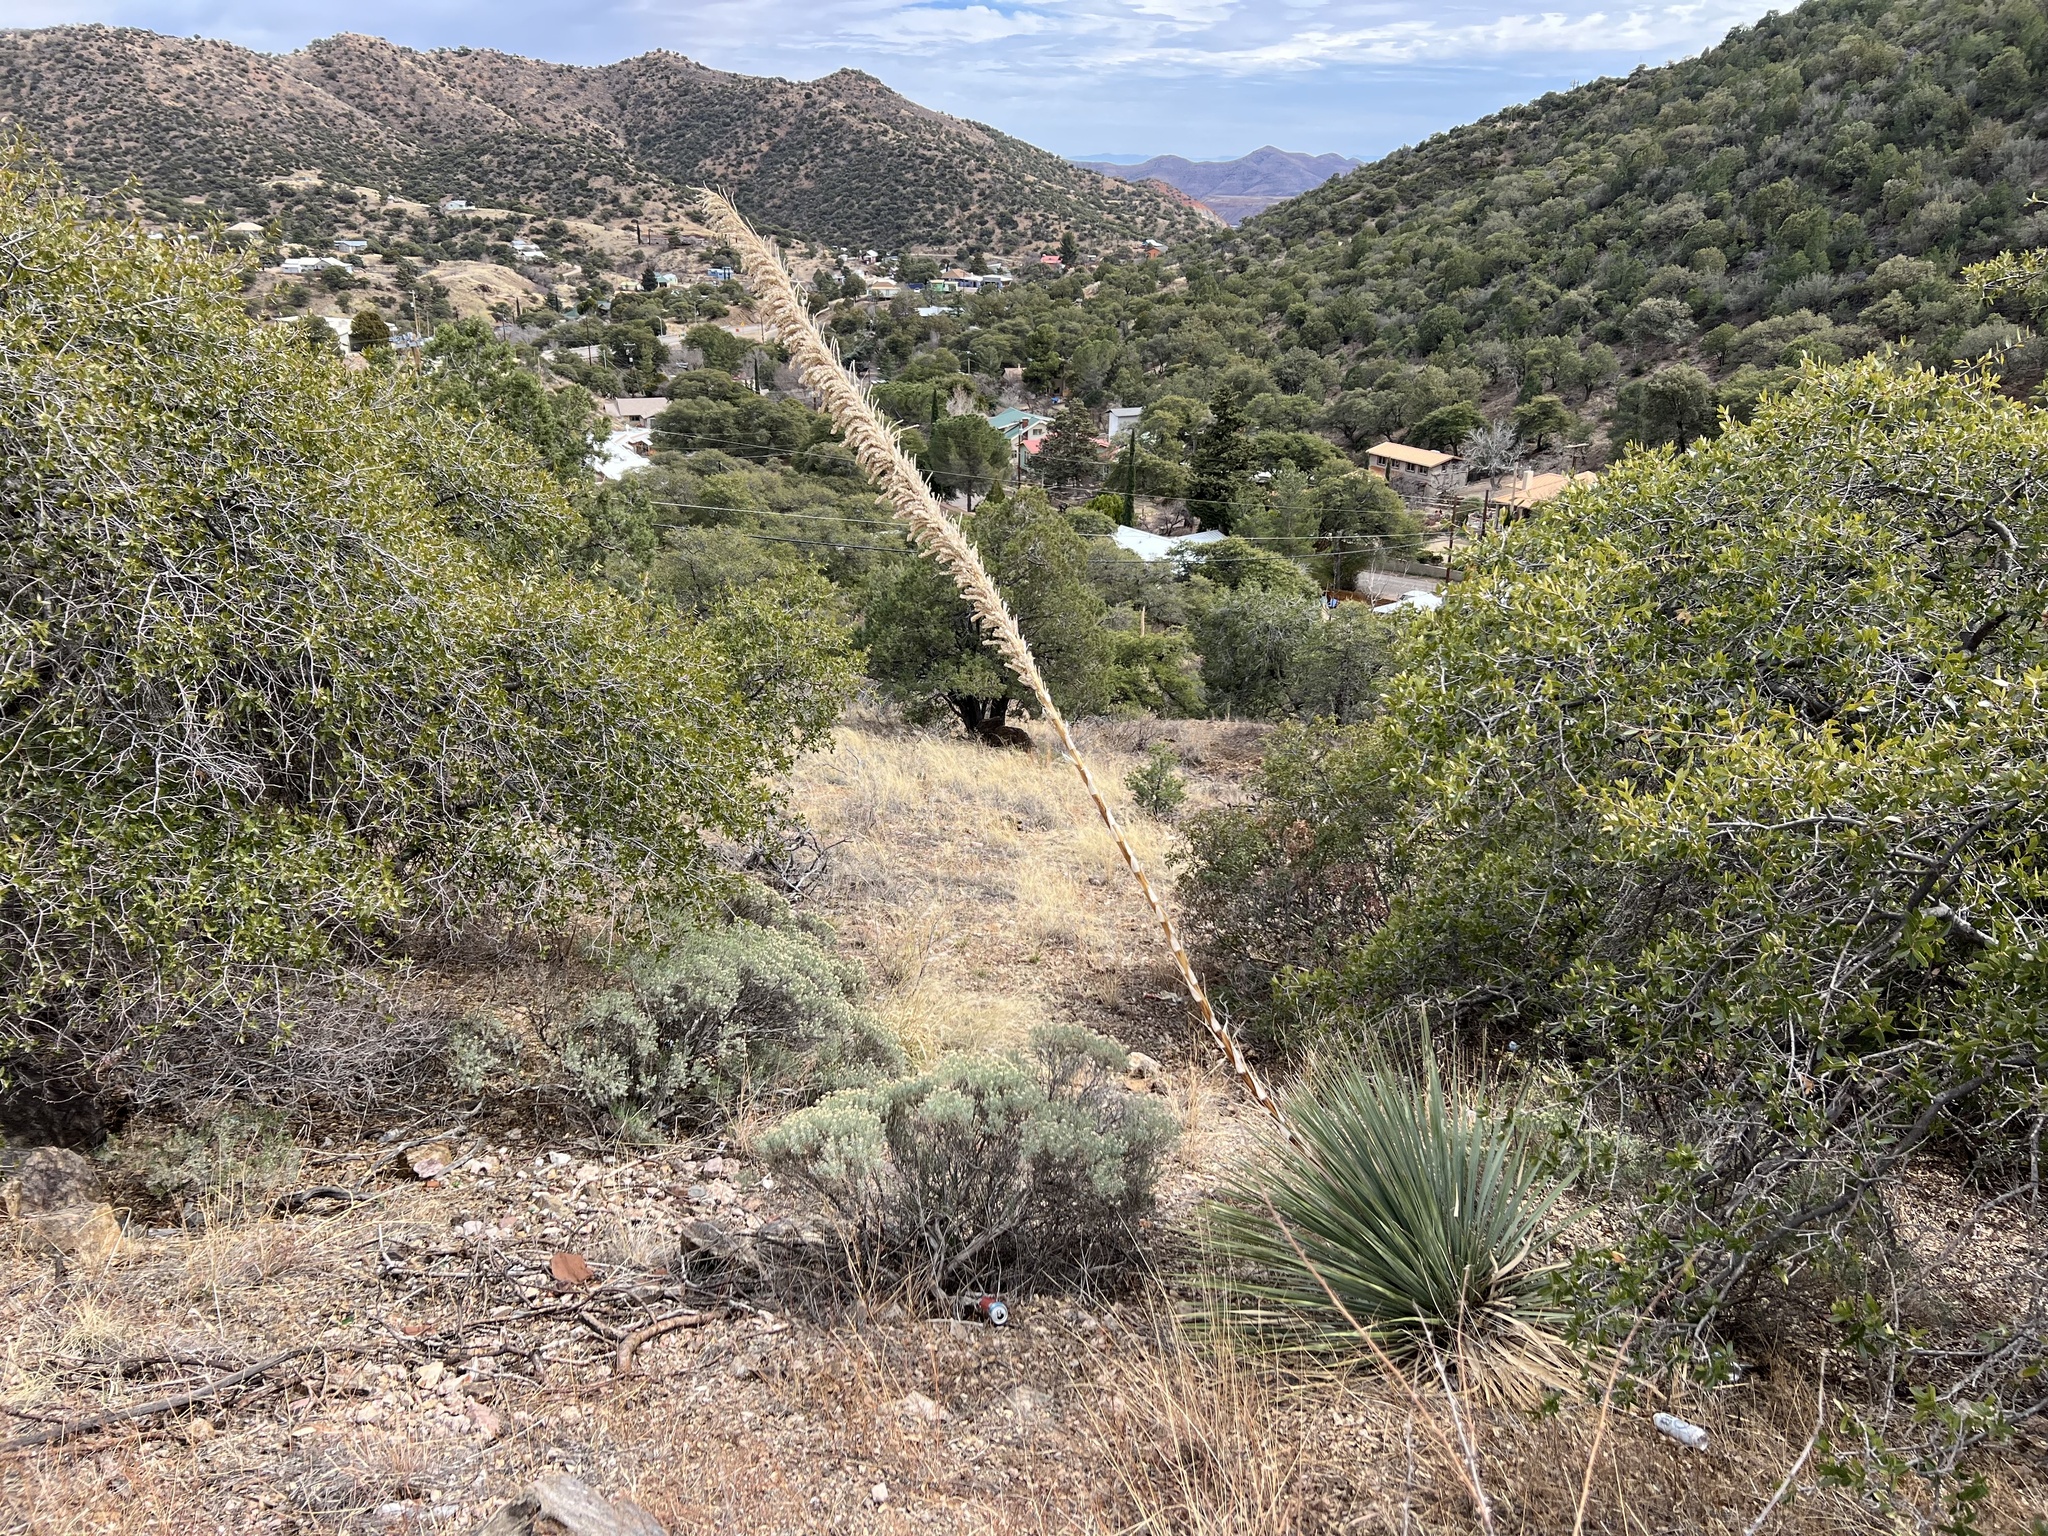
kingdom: Plantae
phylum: Tracheophyta
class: Liliopsida
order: Asparagales
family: Asparagaceae
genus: Dasylirion
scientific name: Dasylirion wheeleri
